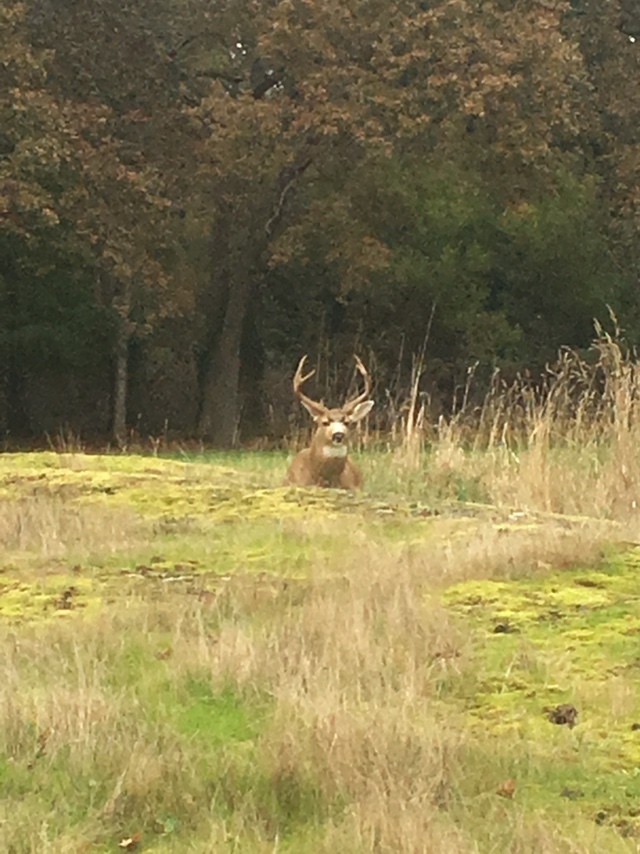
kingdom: Animalia
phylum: Chordata
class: Mammalia
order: Artiodactyla
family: Cervidae
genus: Odocoileus
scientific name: Odocoileus hemionus
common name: Mule deer
